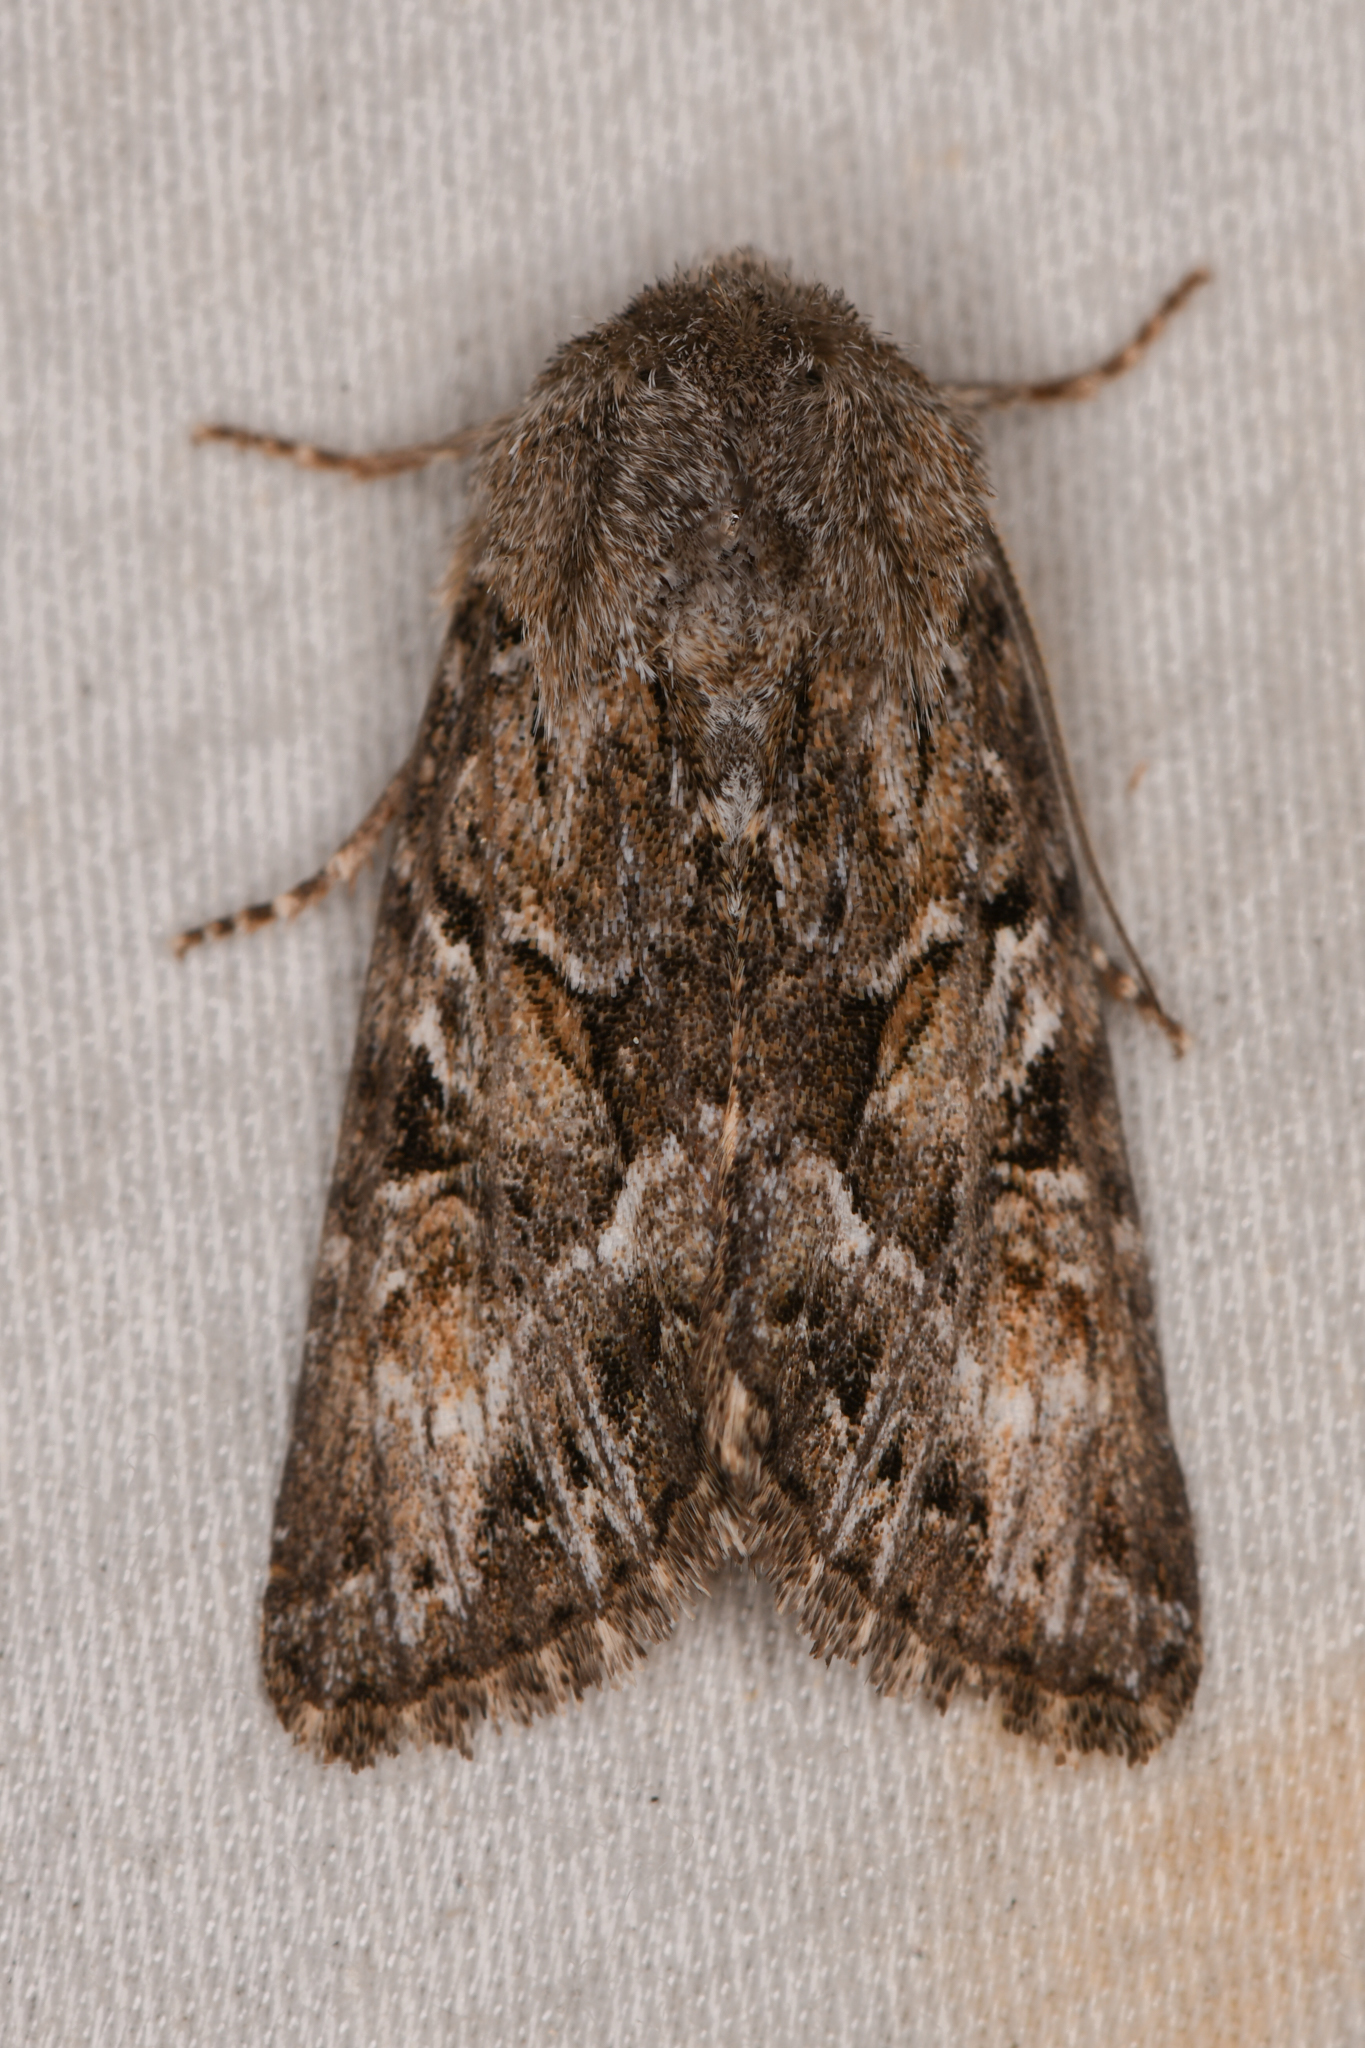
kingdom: Animalia
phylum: Arthropoda
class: Insecta
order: Lepidoptera
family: Noctuidae
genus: Pseudanarta
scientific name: Pseudanarta crocea
